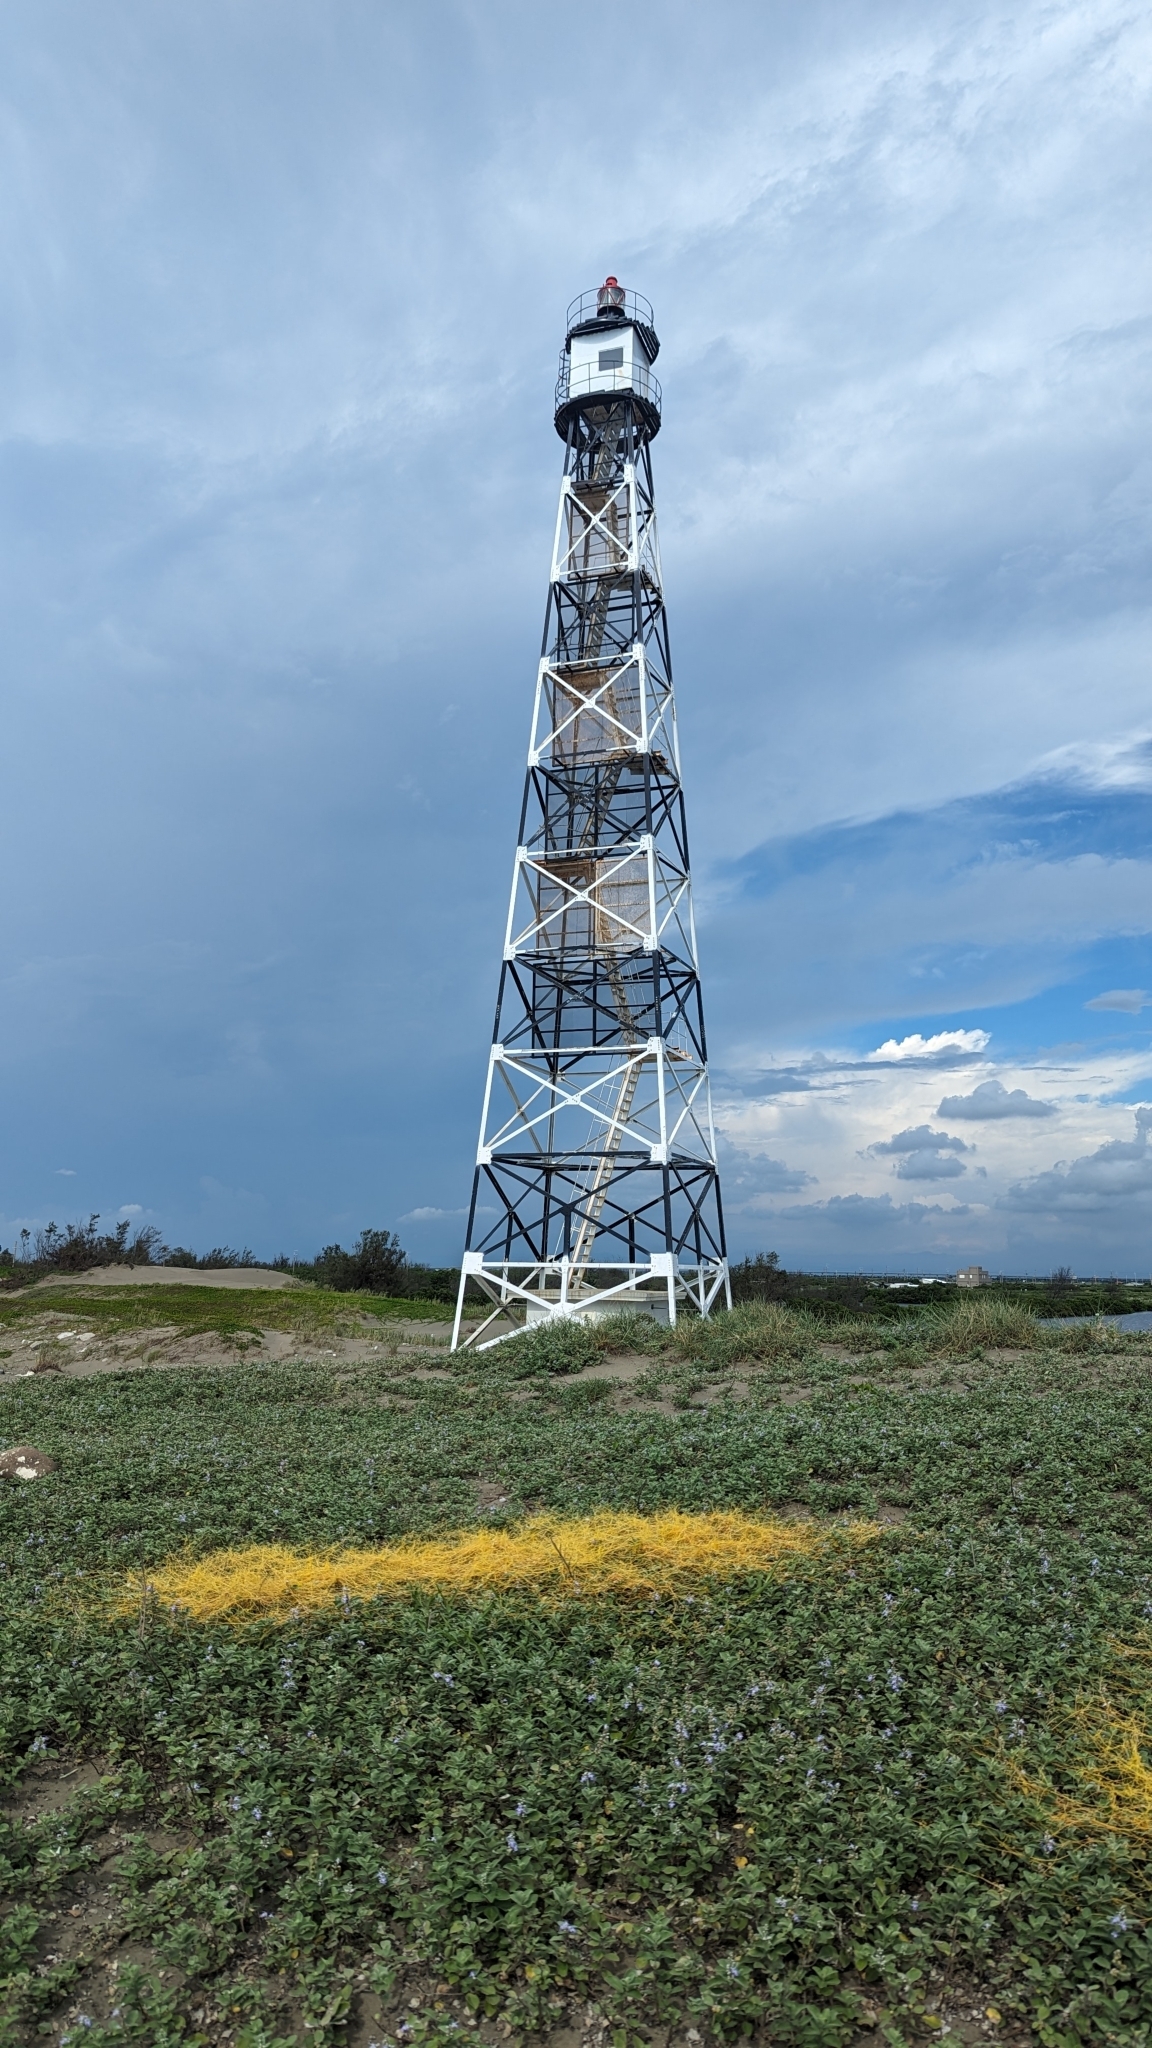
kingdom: Plantae
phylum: Tracheophyta
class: Magnoliopsida
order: Solanales
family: Convolvulaceae
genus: Cuscuta
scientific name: Cuscuta campestris
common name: Yellow dodder
